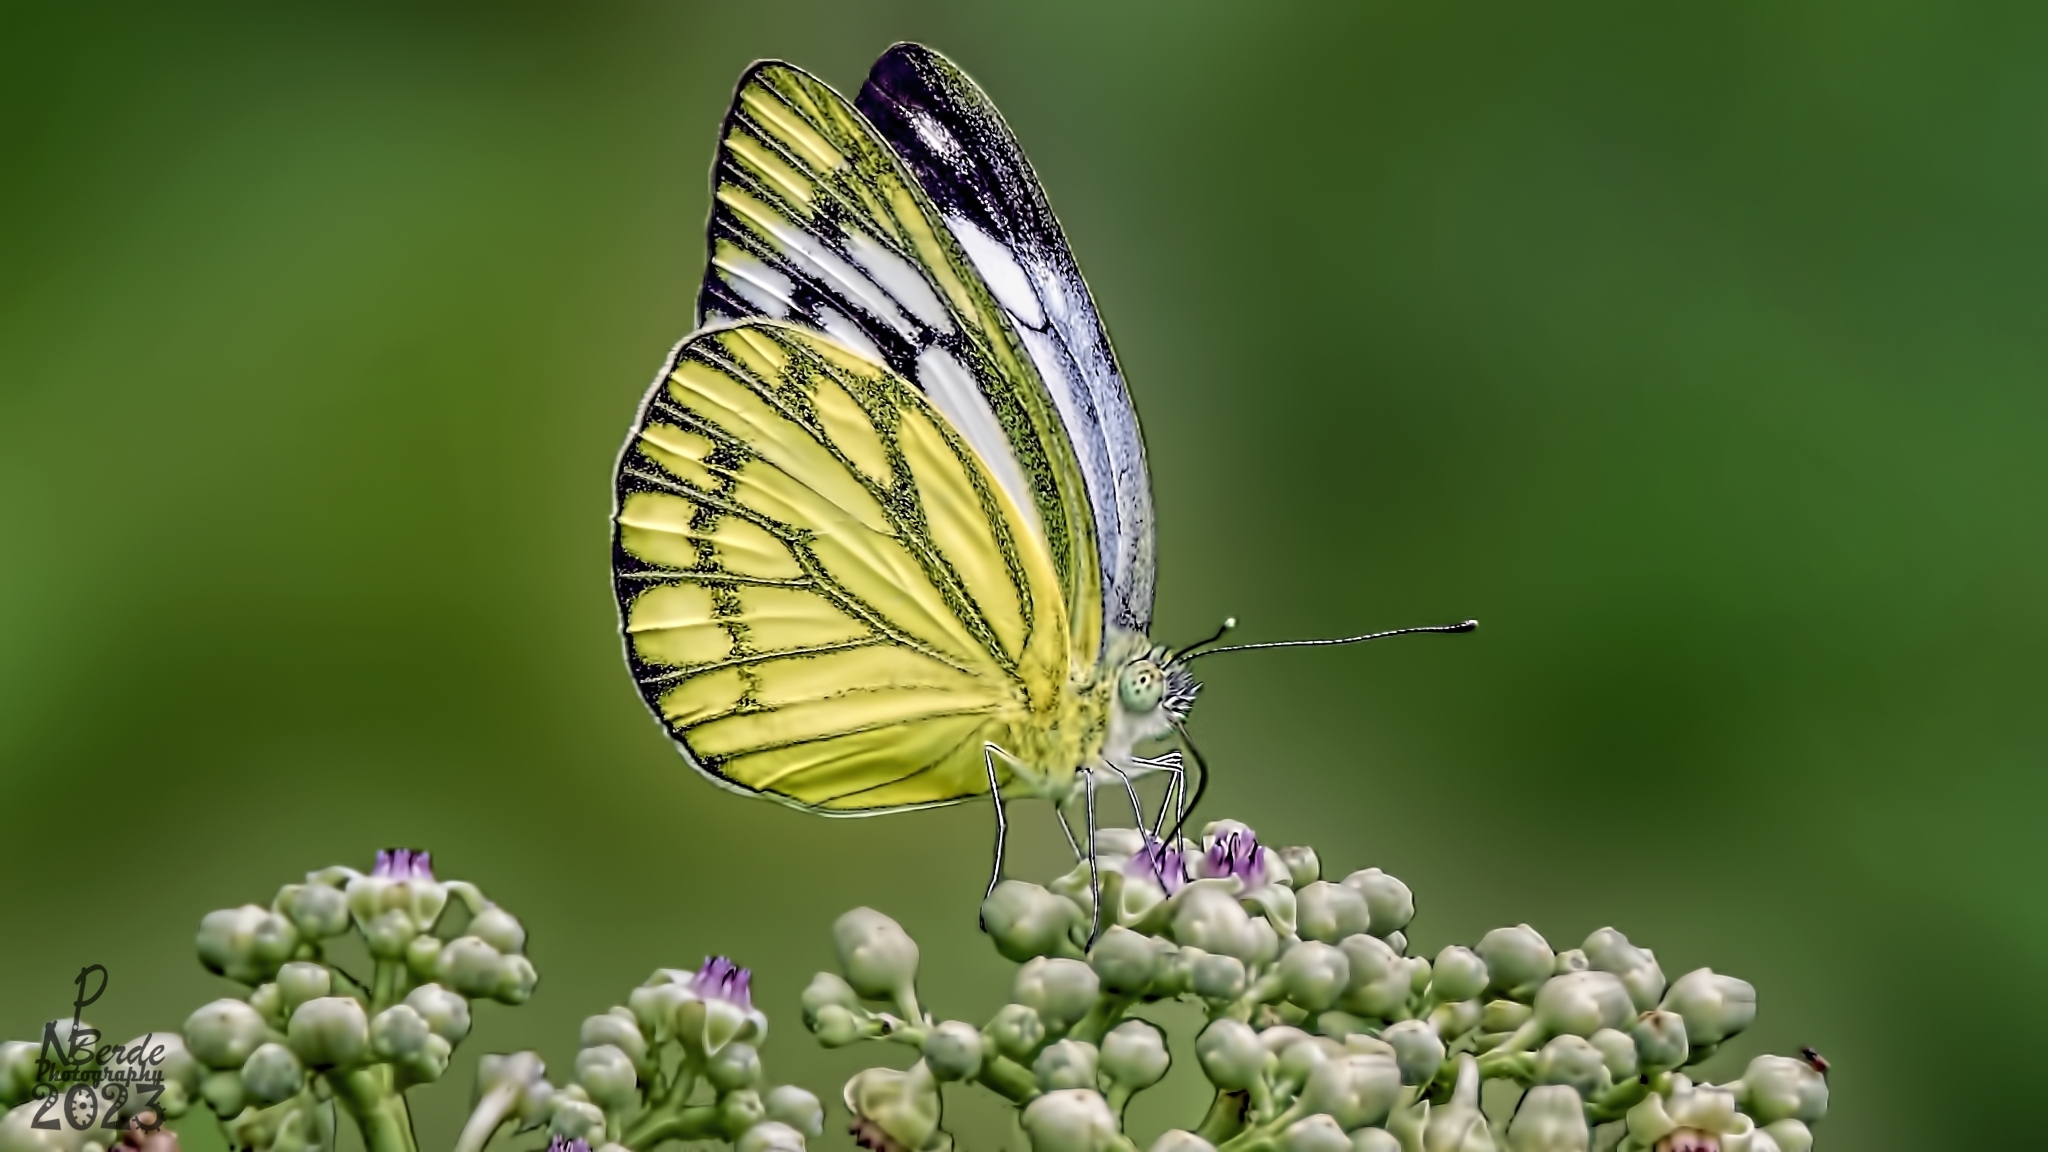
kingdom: Animalia
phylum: Arthropoda
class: Insecta
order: Lepidoptera
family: Pieridae
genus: Cepora
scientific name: Cepora nerissa
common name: Common gull
